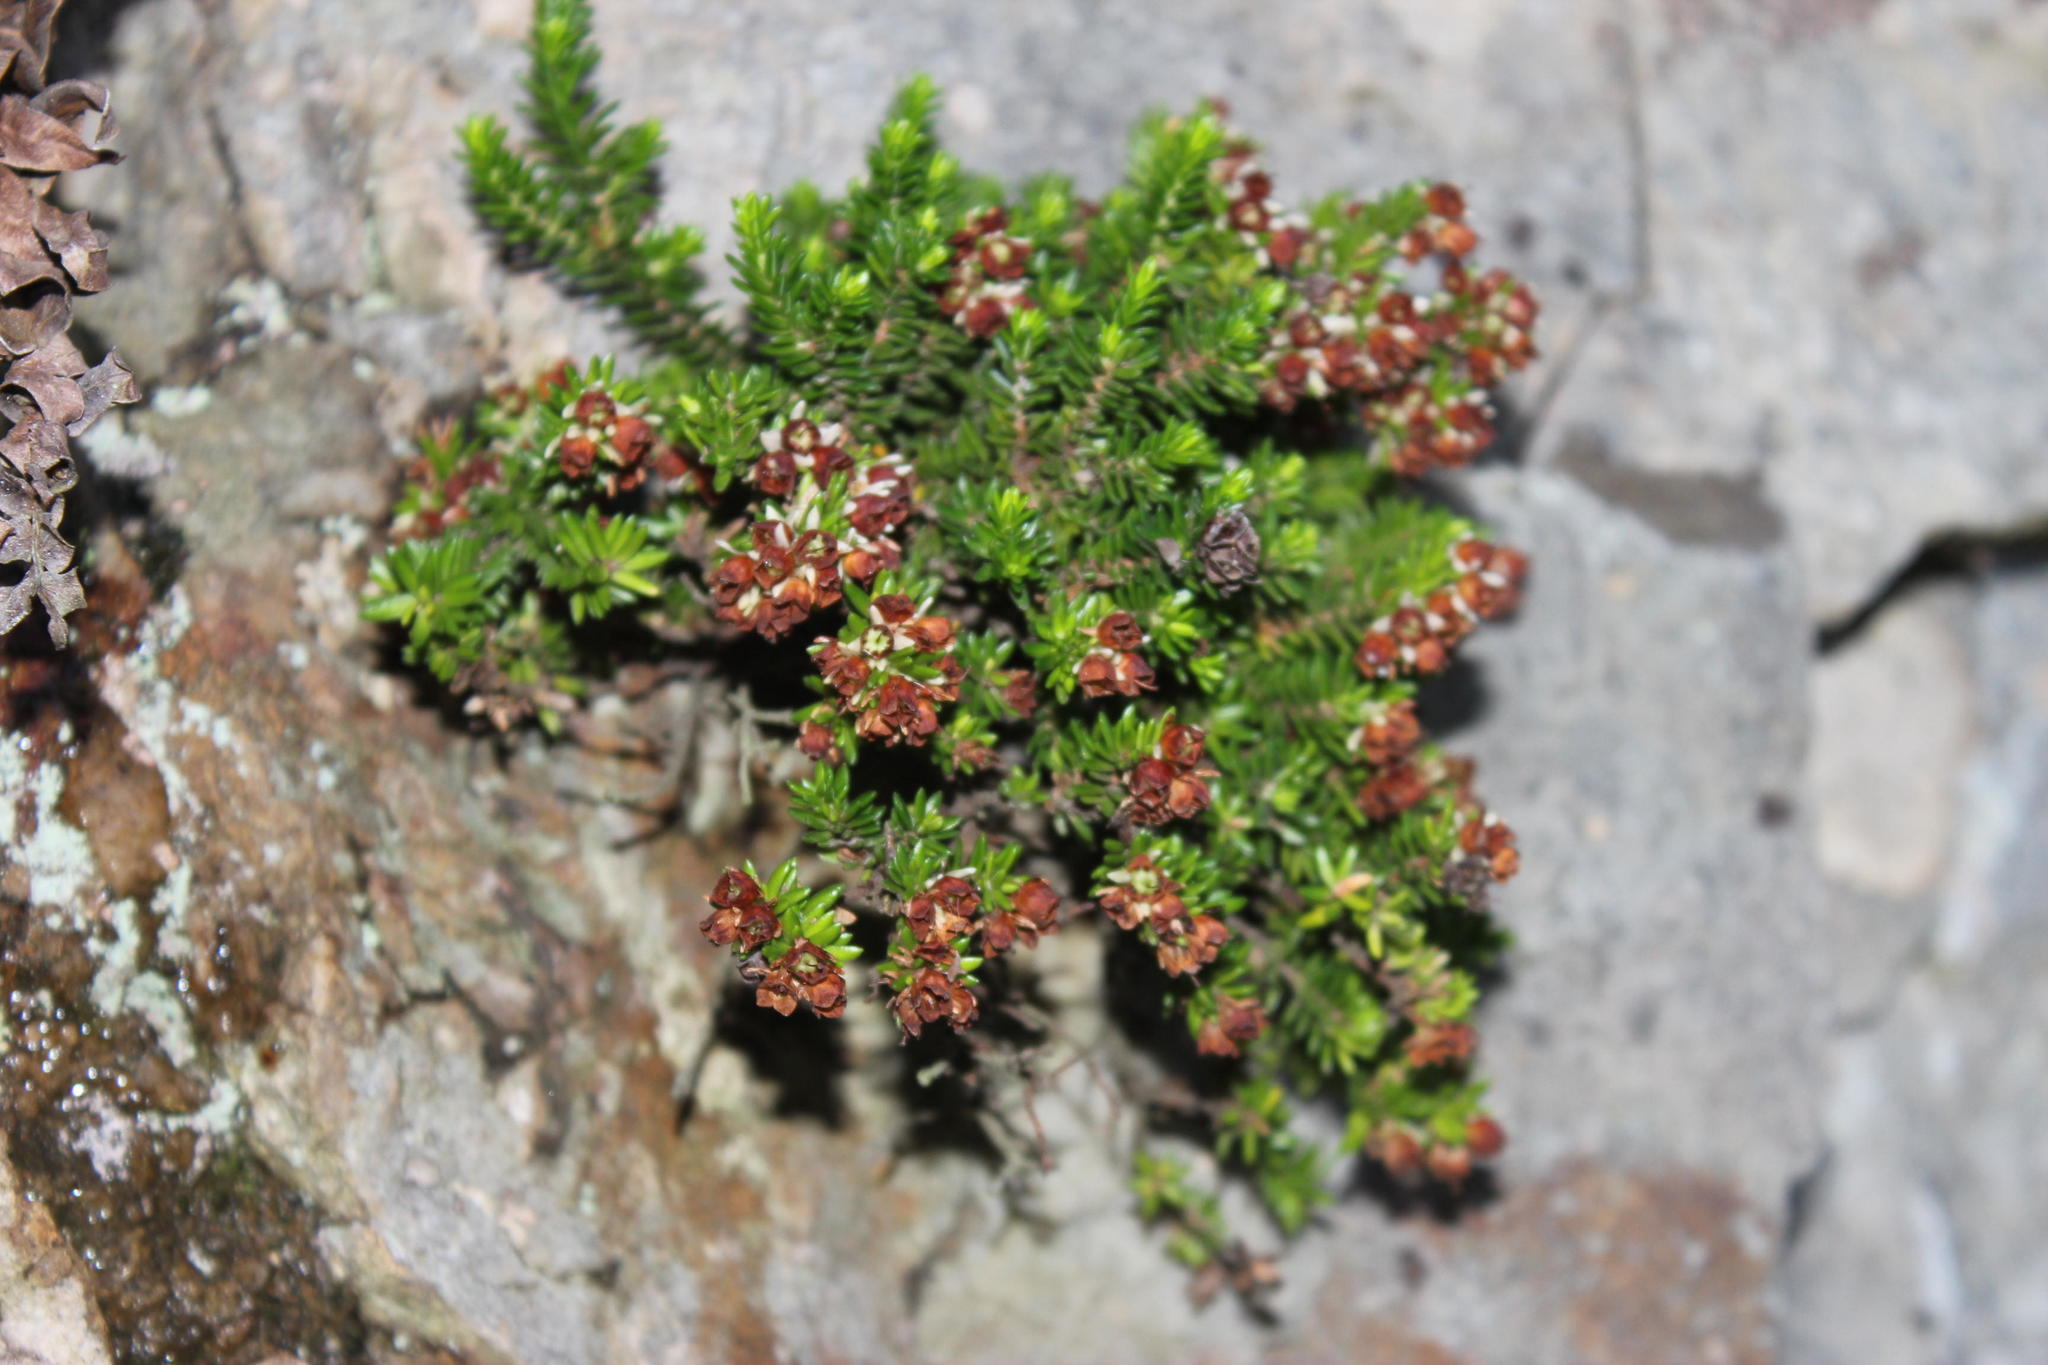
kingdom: Plantae
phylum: Tracheophyta
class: Magnoliopsida
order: Ericales
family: Ericaceae
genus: Erica
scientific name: Erica depressa
